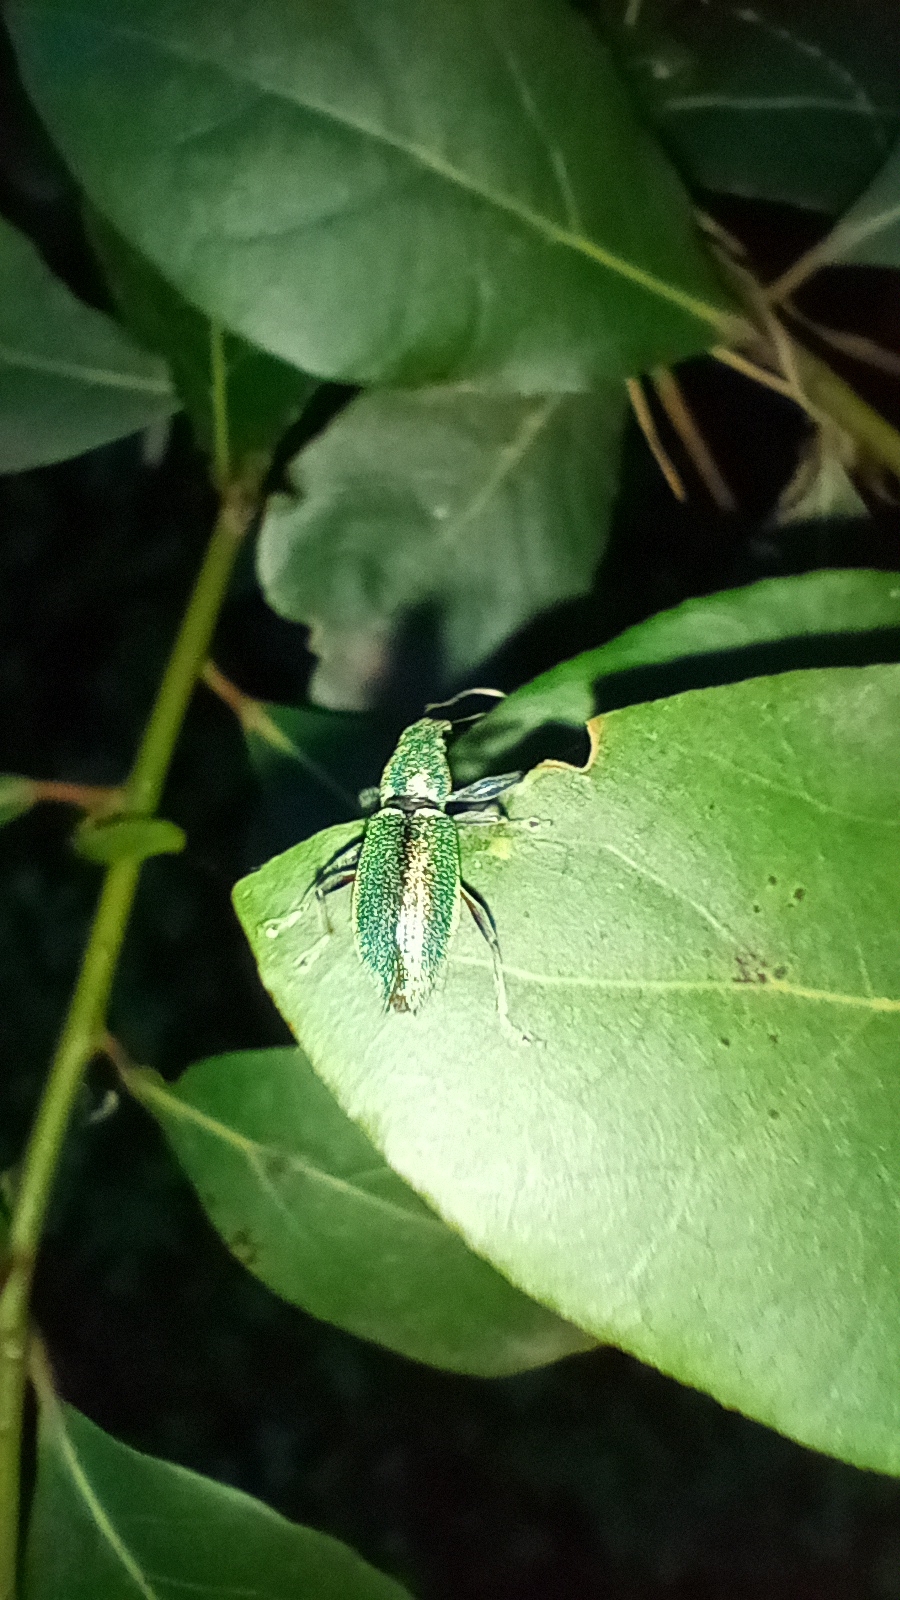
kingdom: Animalia
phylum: Arthropoda
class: Insecta
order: Coleoptera
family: Curculionidae
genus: Naupactus
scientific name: Naupactus auricinctus
